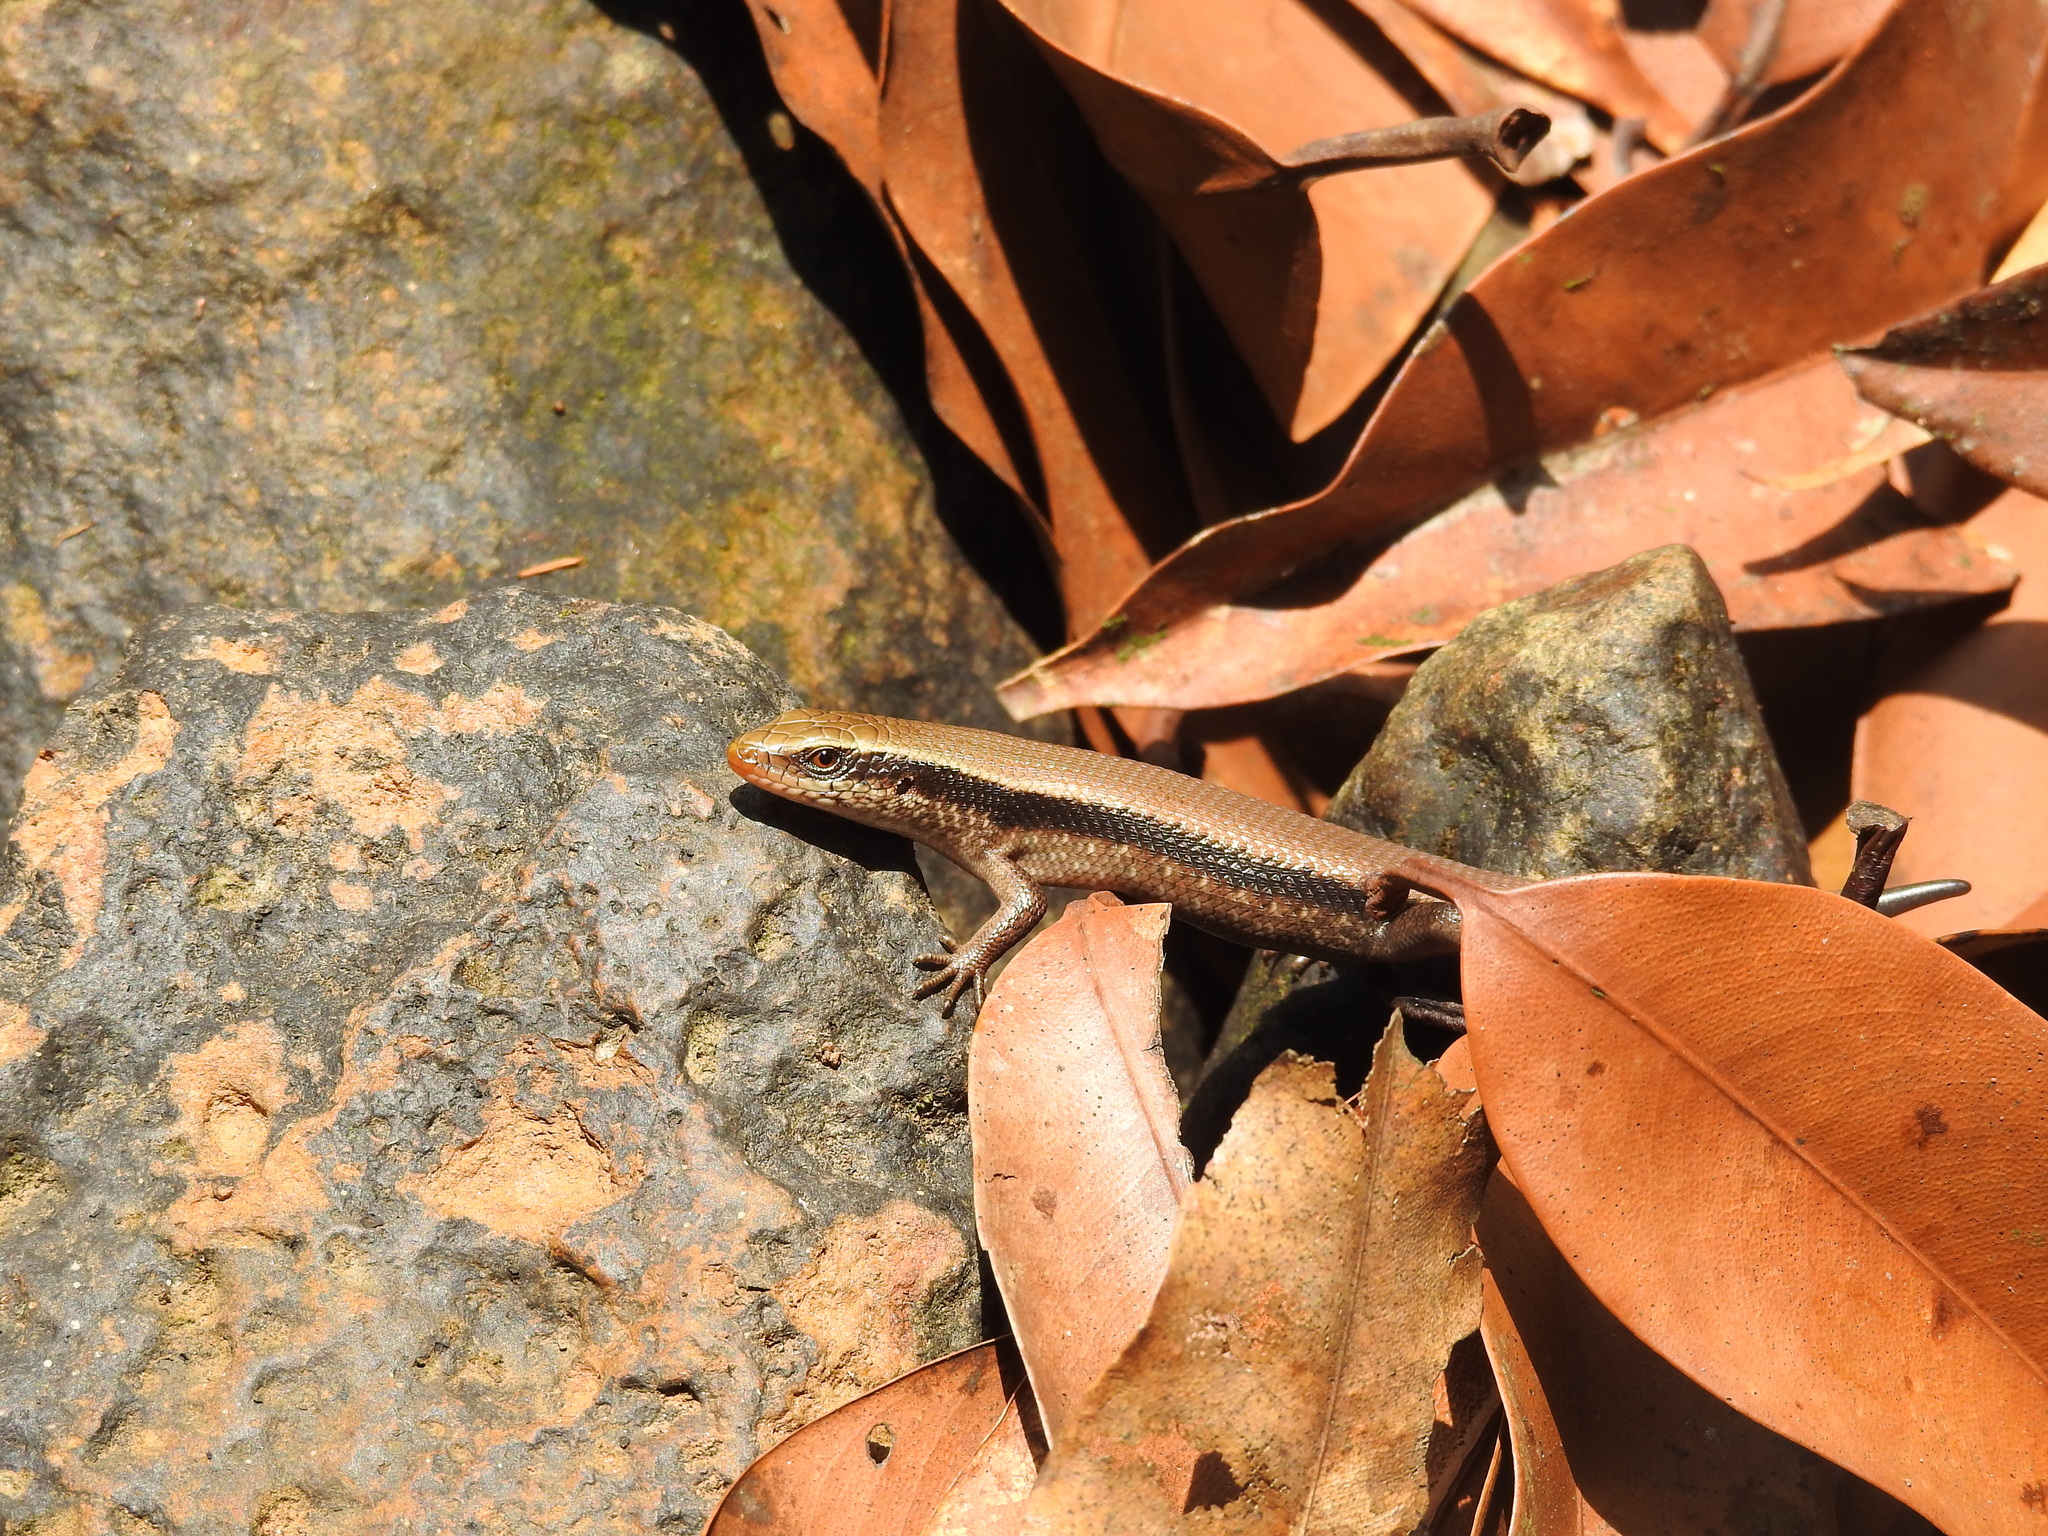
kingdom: Animalia
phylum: Chordata
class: Squamata
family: Scincidae
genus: Eutropis
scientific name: Eutropis carinata
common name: Keeled indian mabuya
